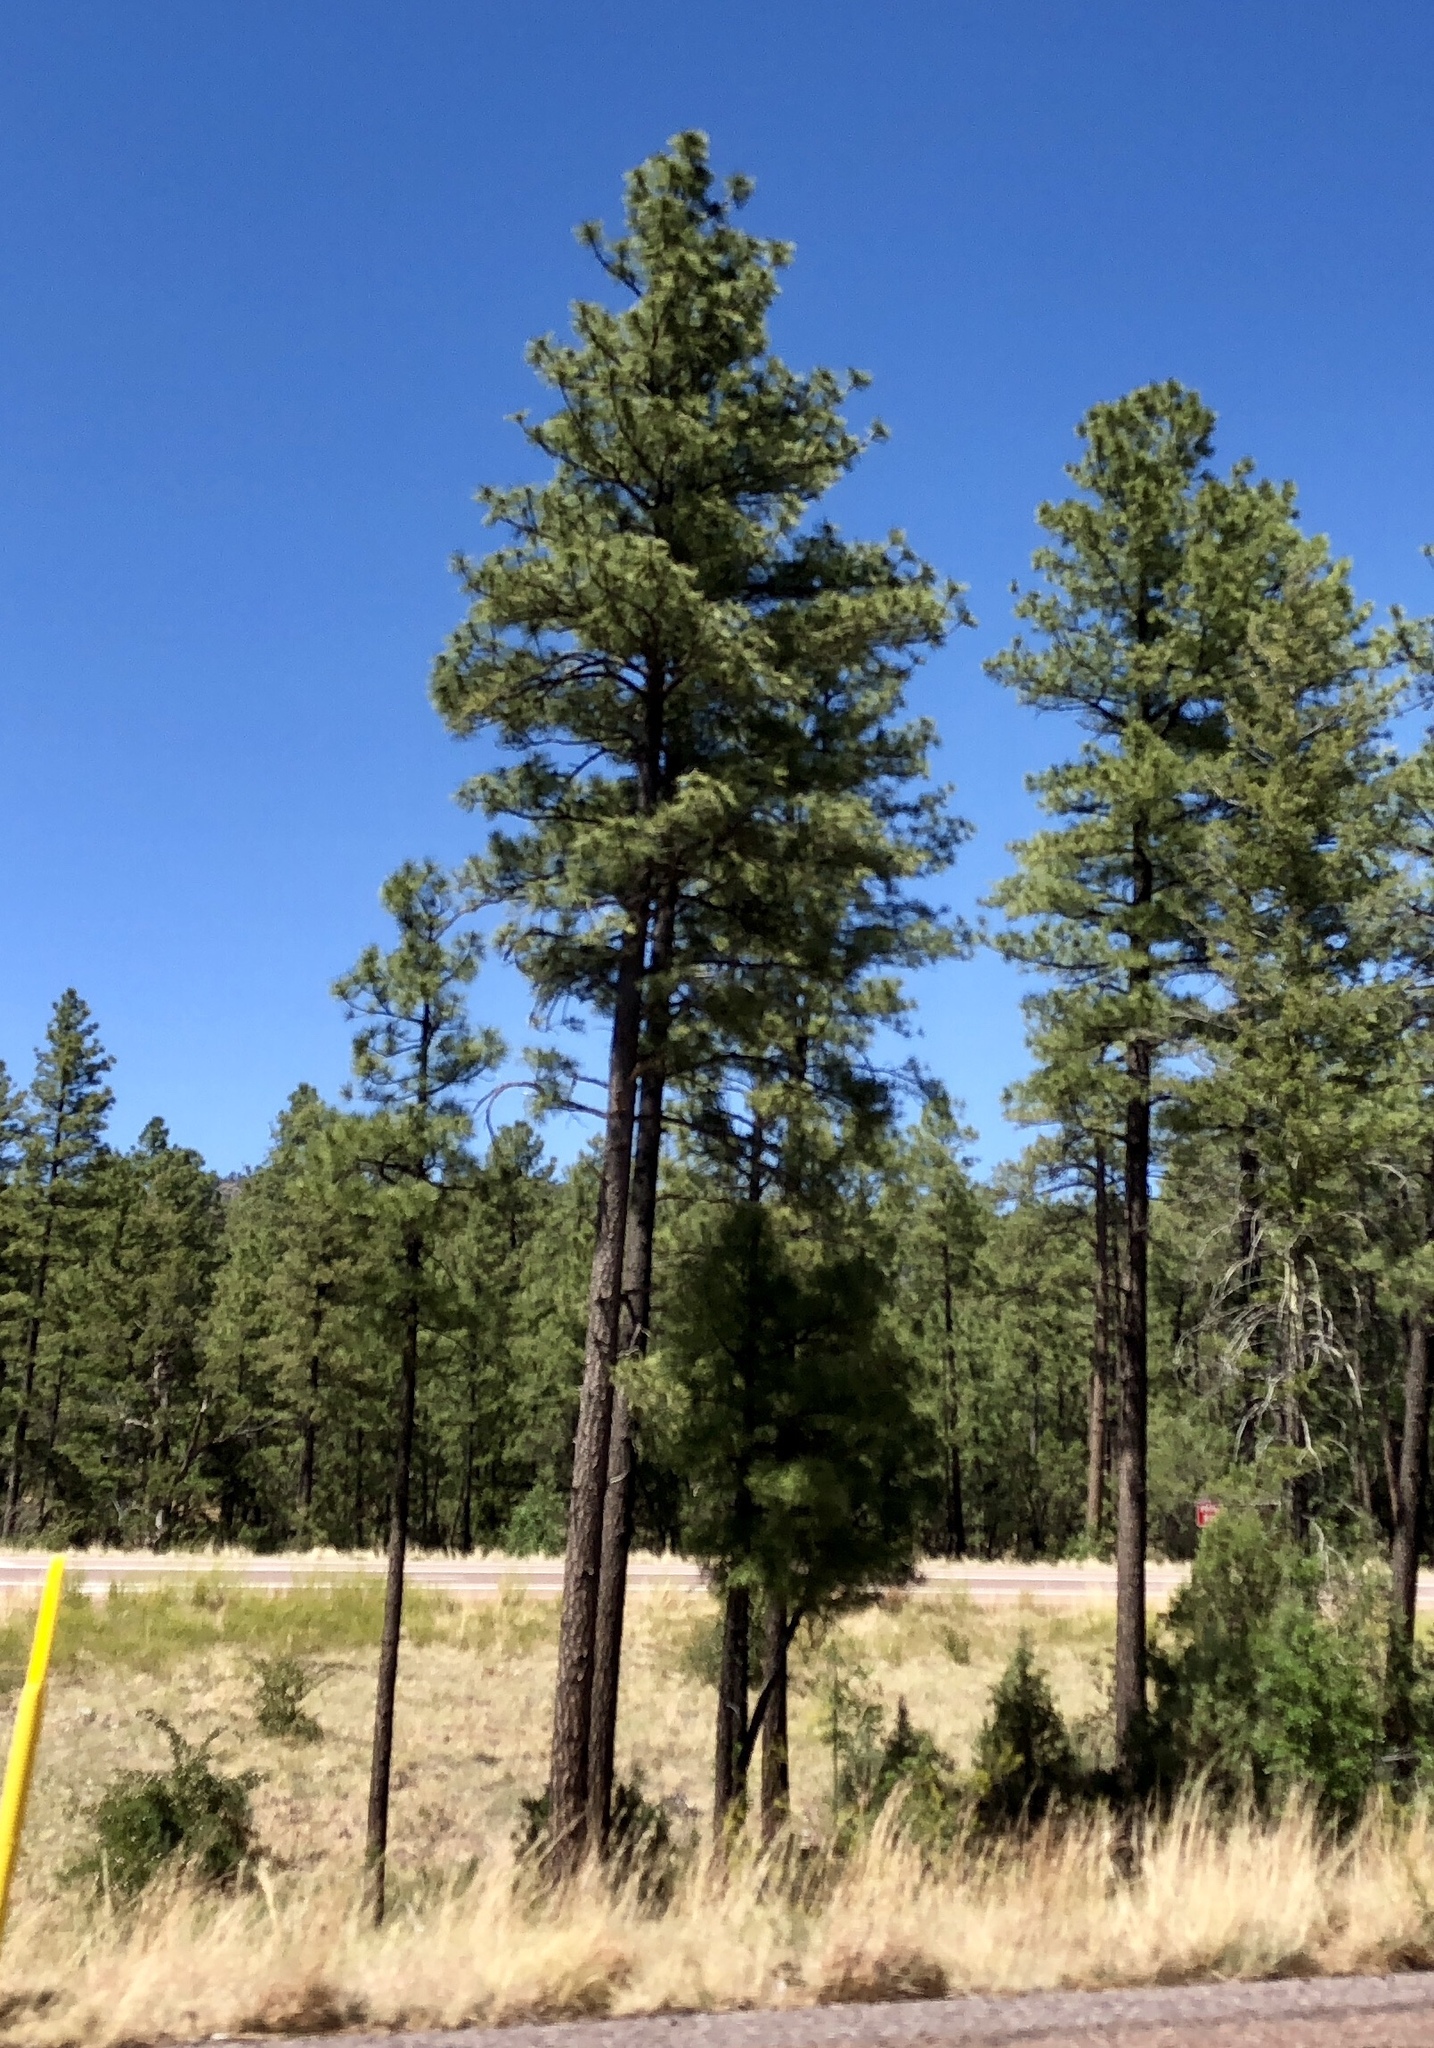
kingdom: Plantae
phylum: Tracheophyta
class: Pinopsida
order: Pinales
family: Pinaceae
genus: Pinus
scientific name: Pinus ponderosa
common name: Western yellow-pine
